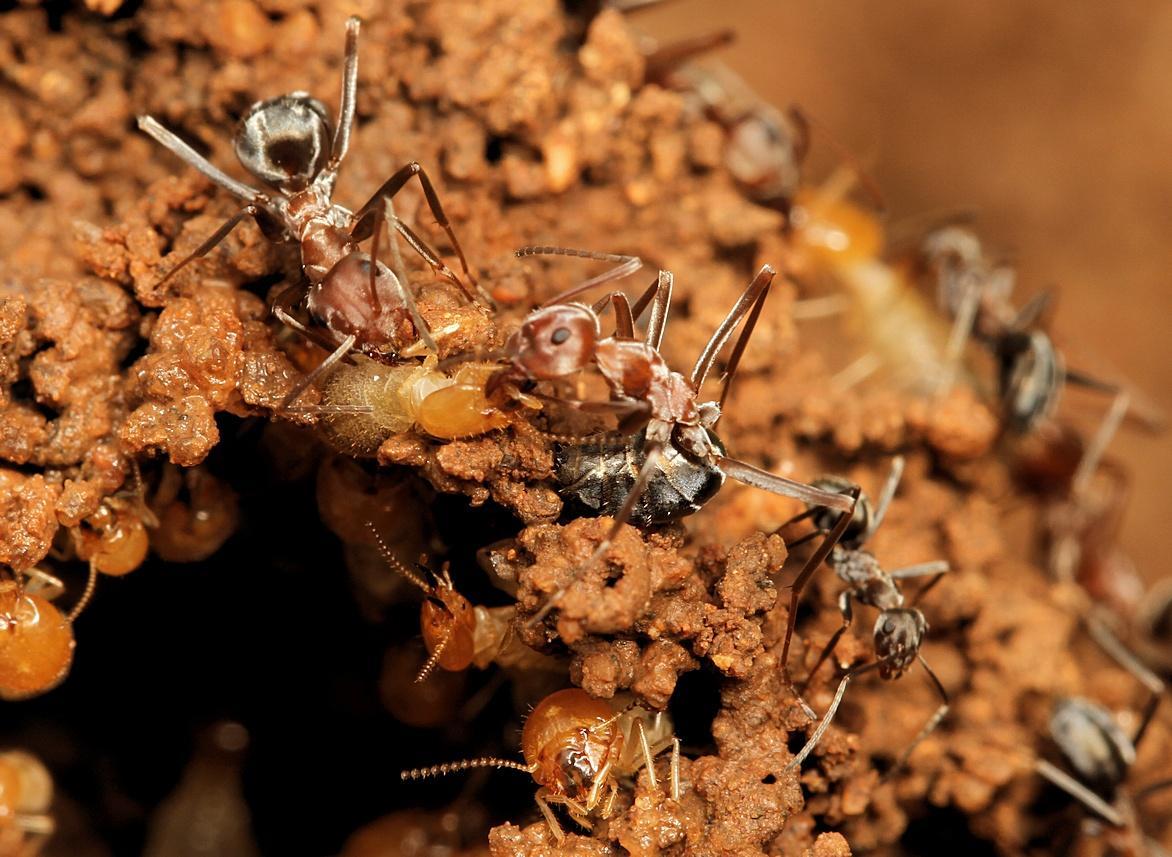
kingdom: Animalia
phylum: Arthropoda
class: Insecta
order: Hymenoptera
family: Formicidae
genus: Anoplolepis
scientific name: Anoplolepis custodiens
